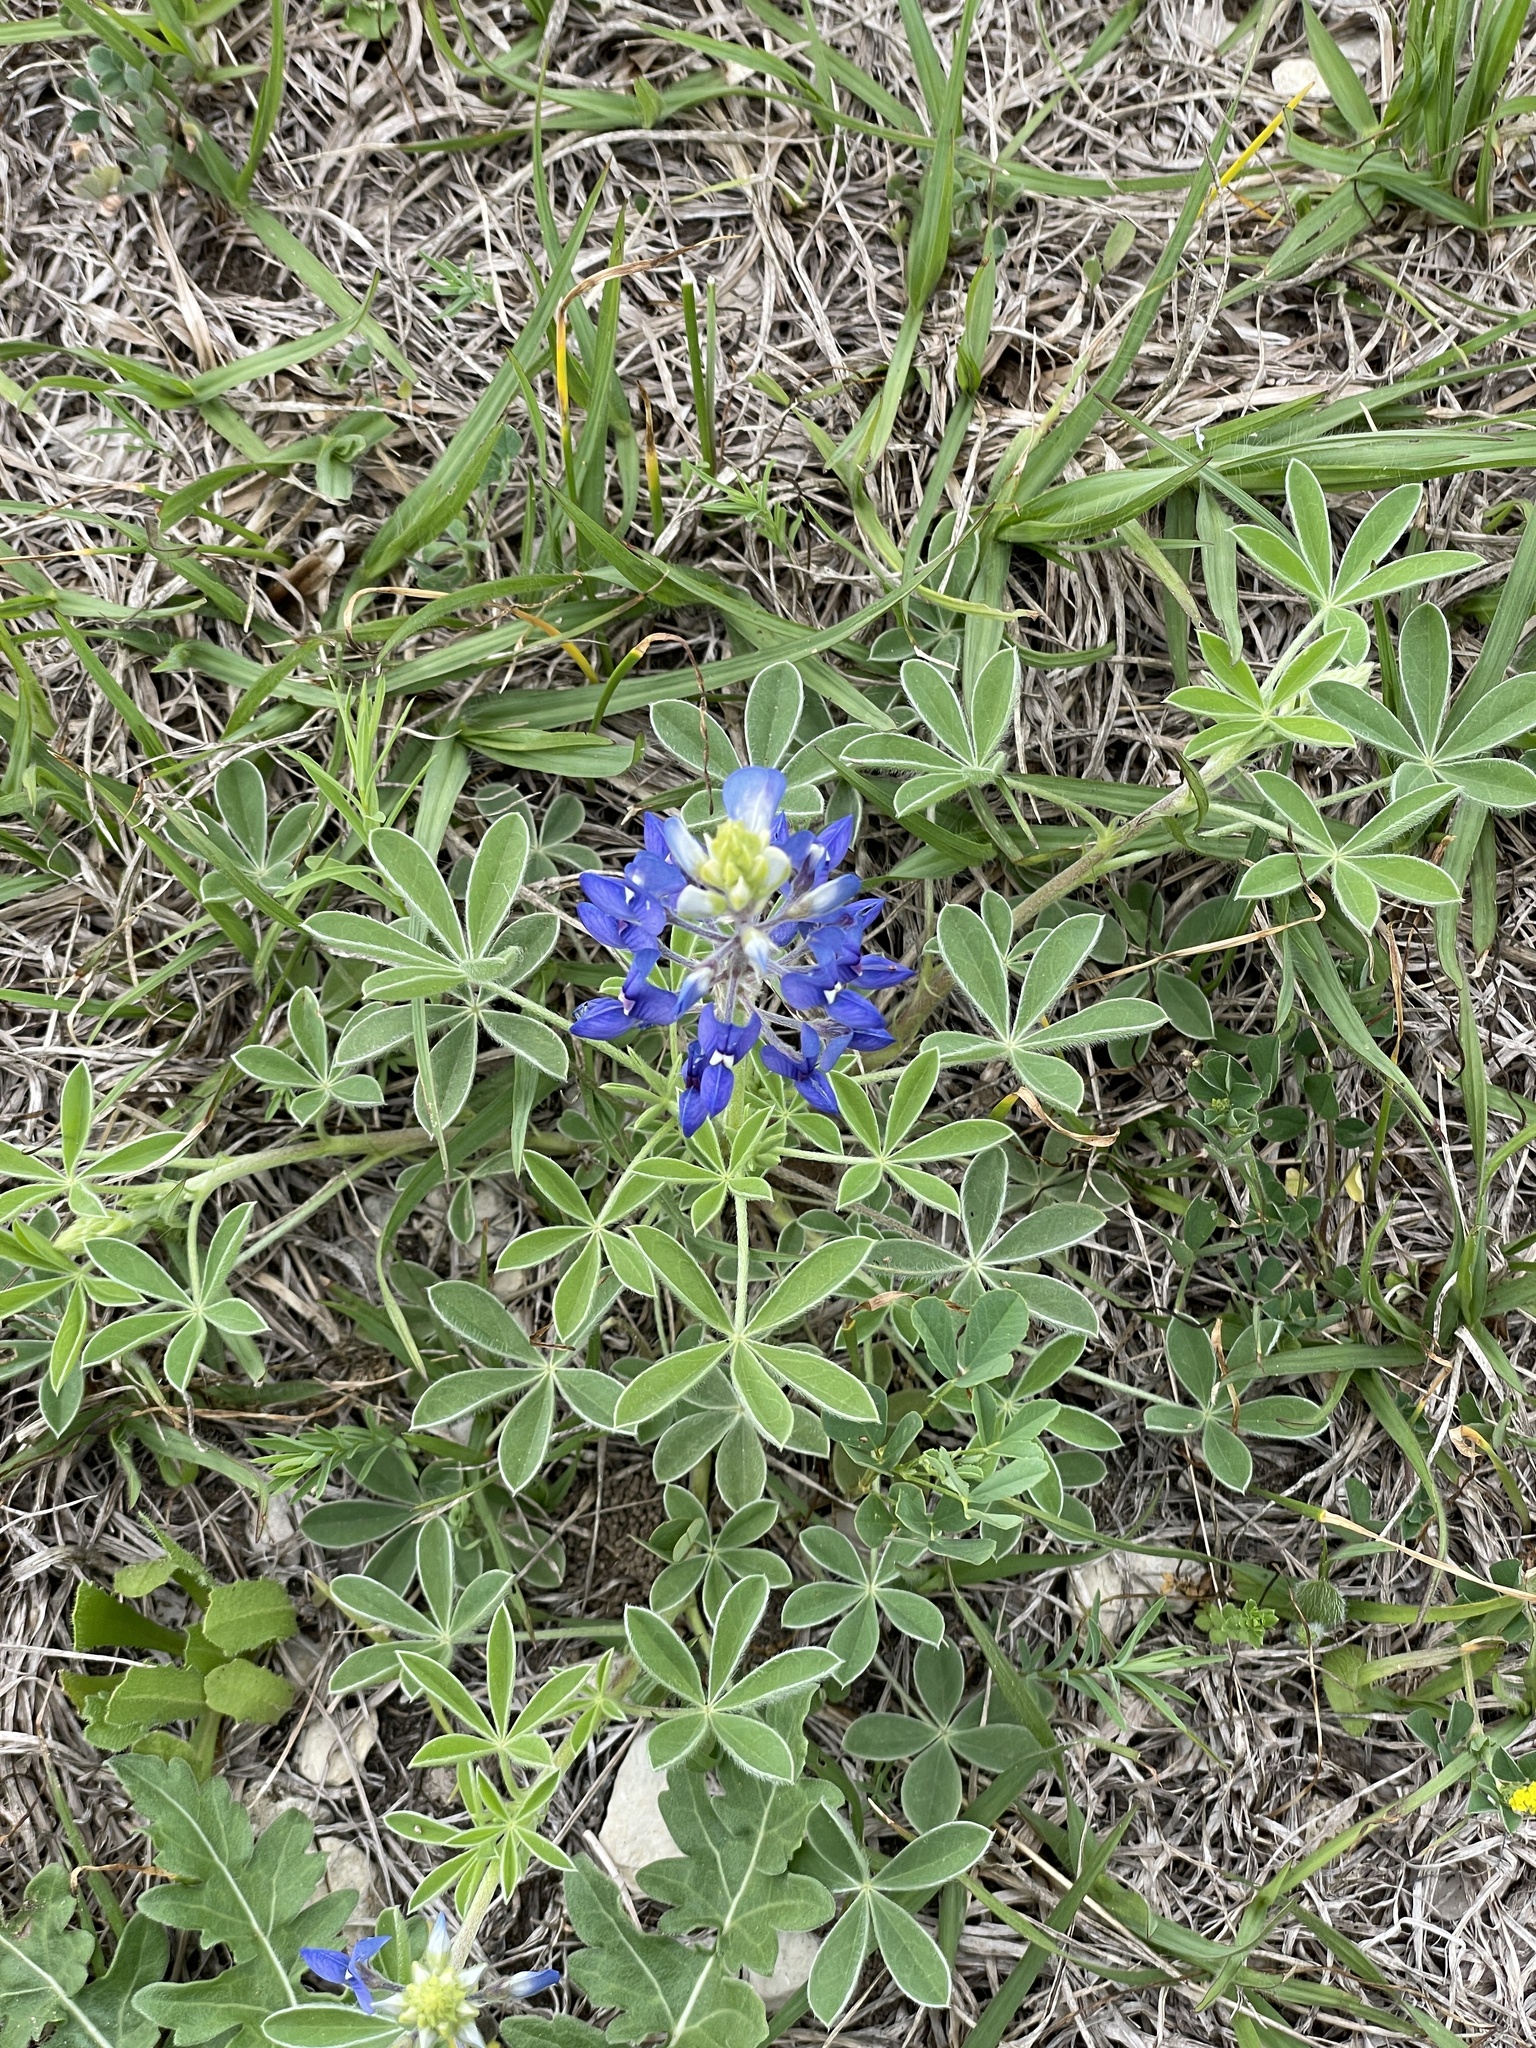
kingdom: Plantae
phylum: Tracheophyta
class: Magnoliopsida
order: Fabales
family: Fabaceae
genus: Lupinus
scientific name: Lupinus texensis
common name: Texas bluebonnet
